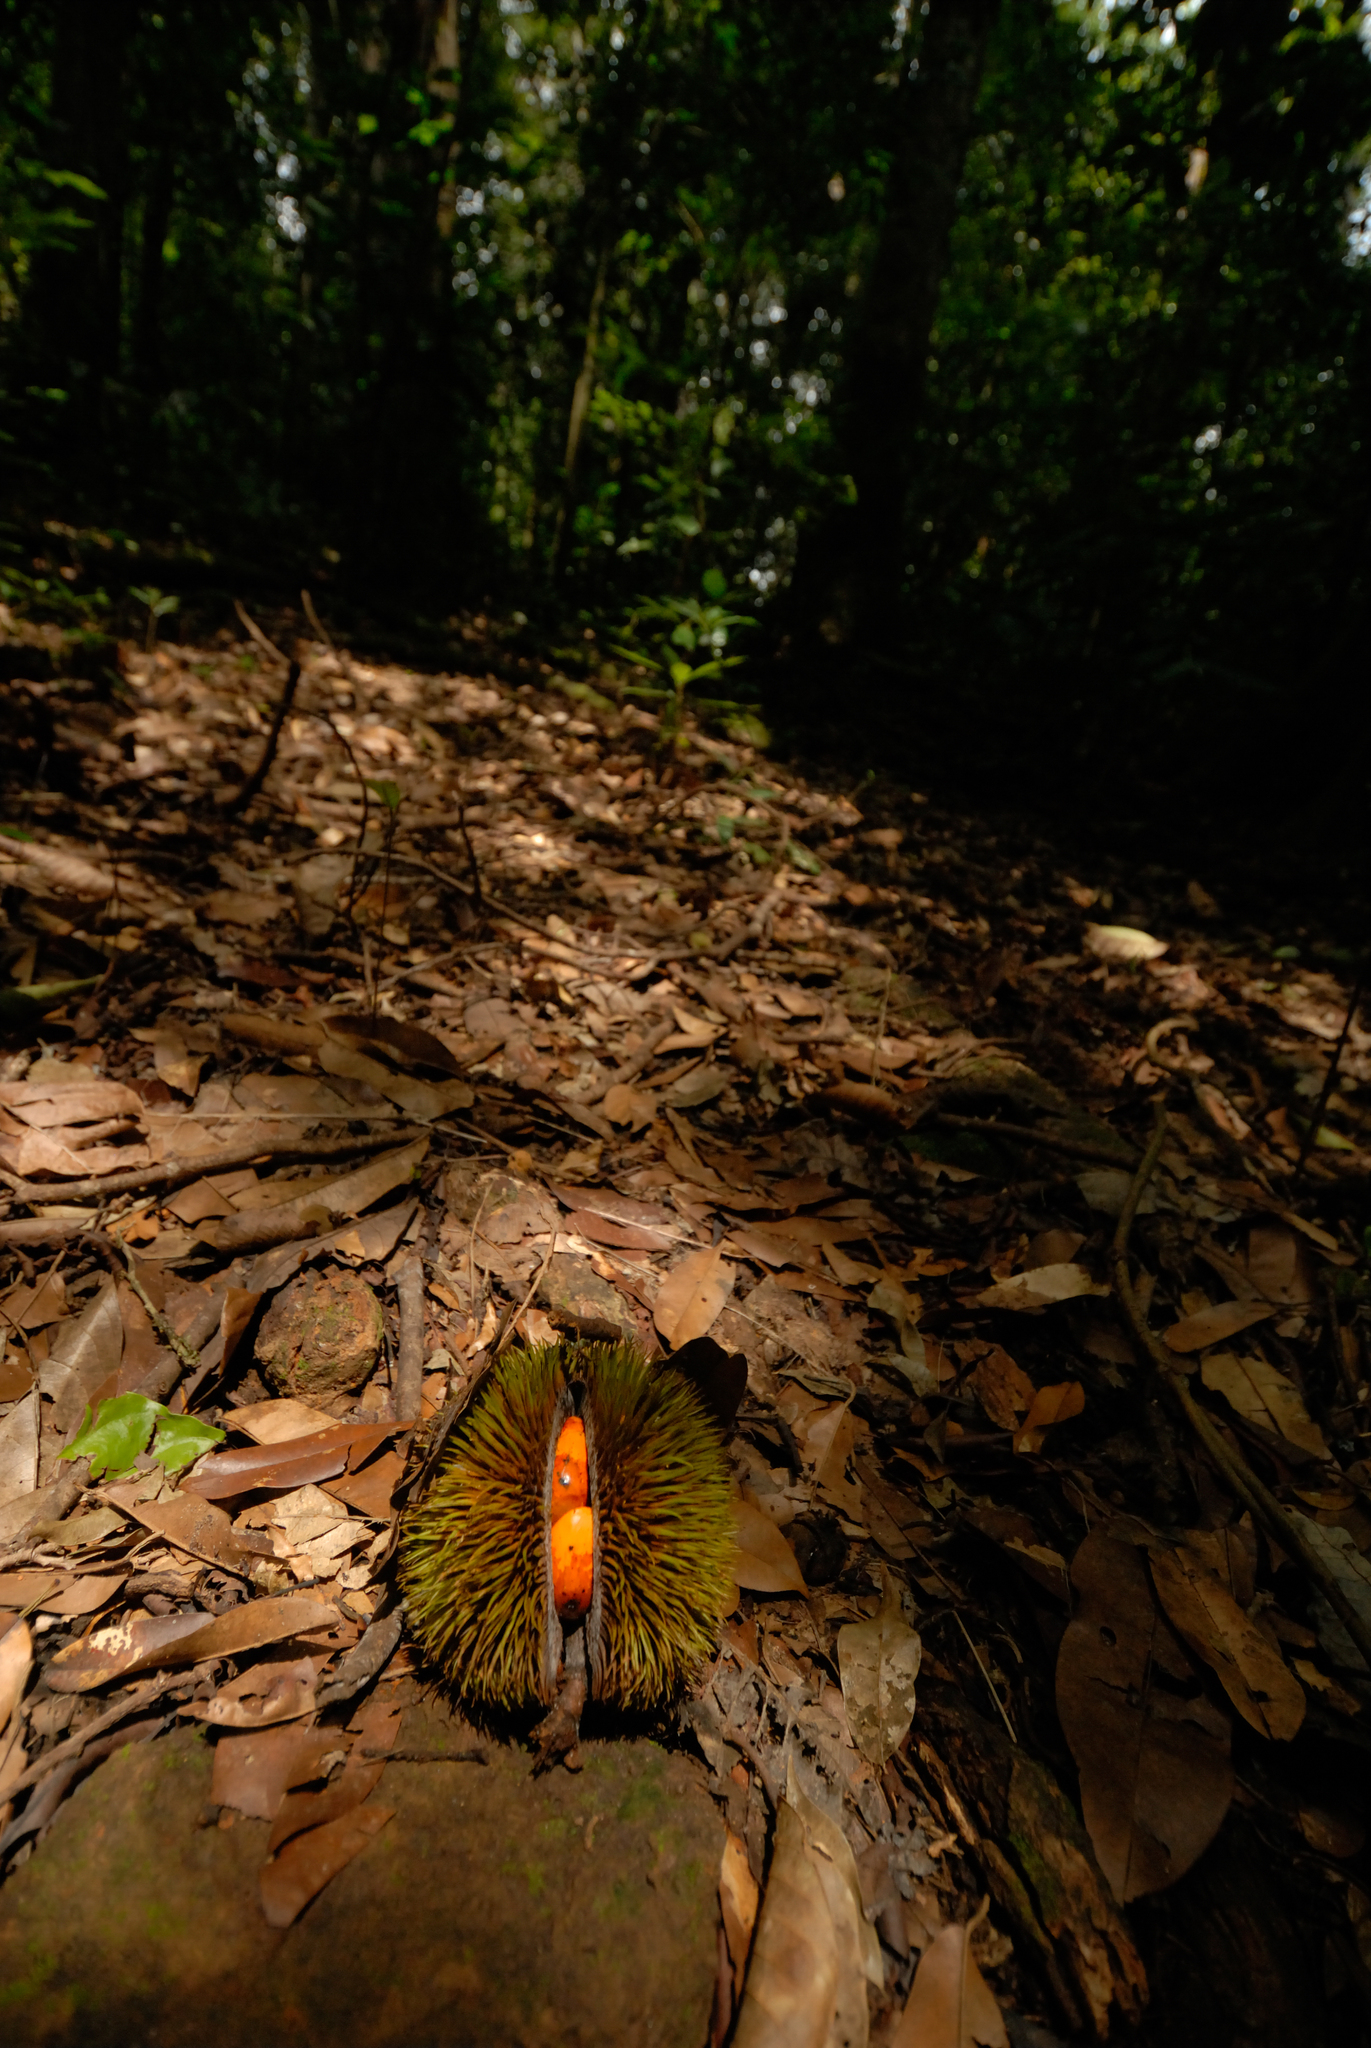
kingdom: Plantae
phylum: Tracheophyta
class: Magnoliopsida
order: Malvales
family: Malvaceae
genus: Cullenia
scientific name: Cullenia exarillata
